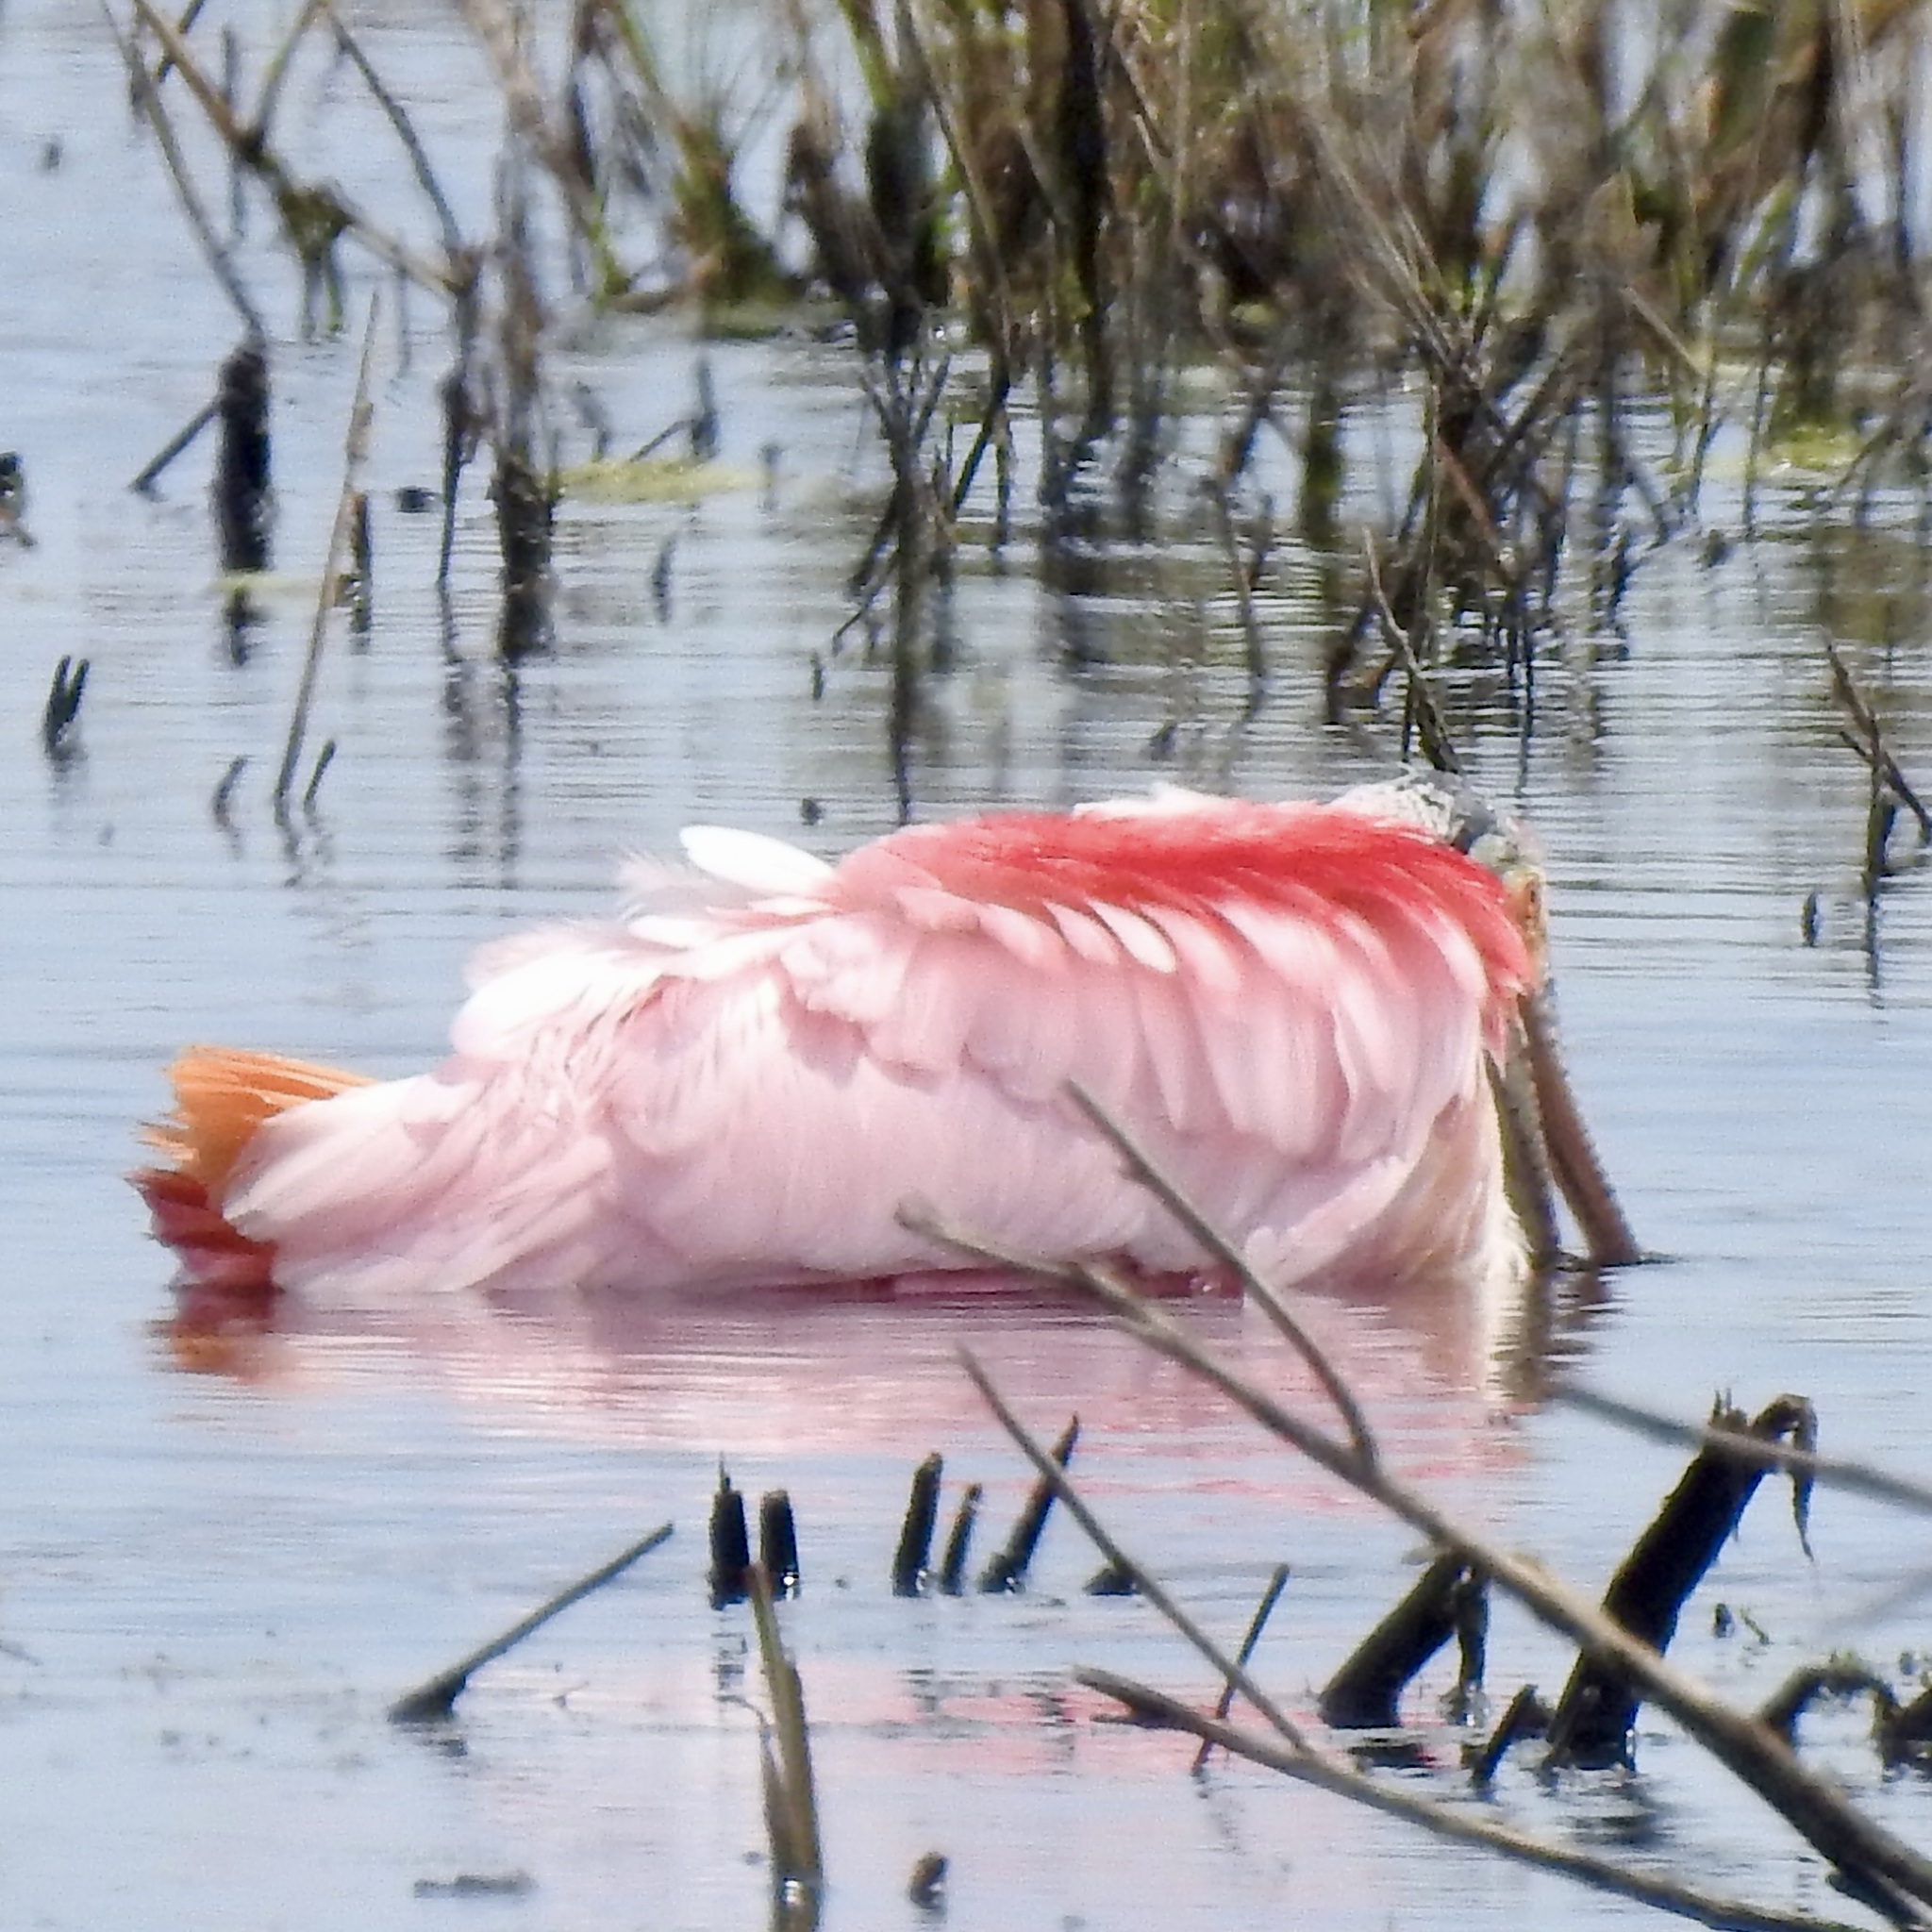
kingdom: Animalia
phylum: Chordata
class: Aves
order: Pelecaniformes
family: Threskiornithidae
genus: Platalea
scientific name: Platalea ajaja
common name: Roseate spoonbill
